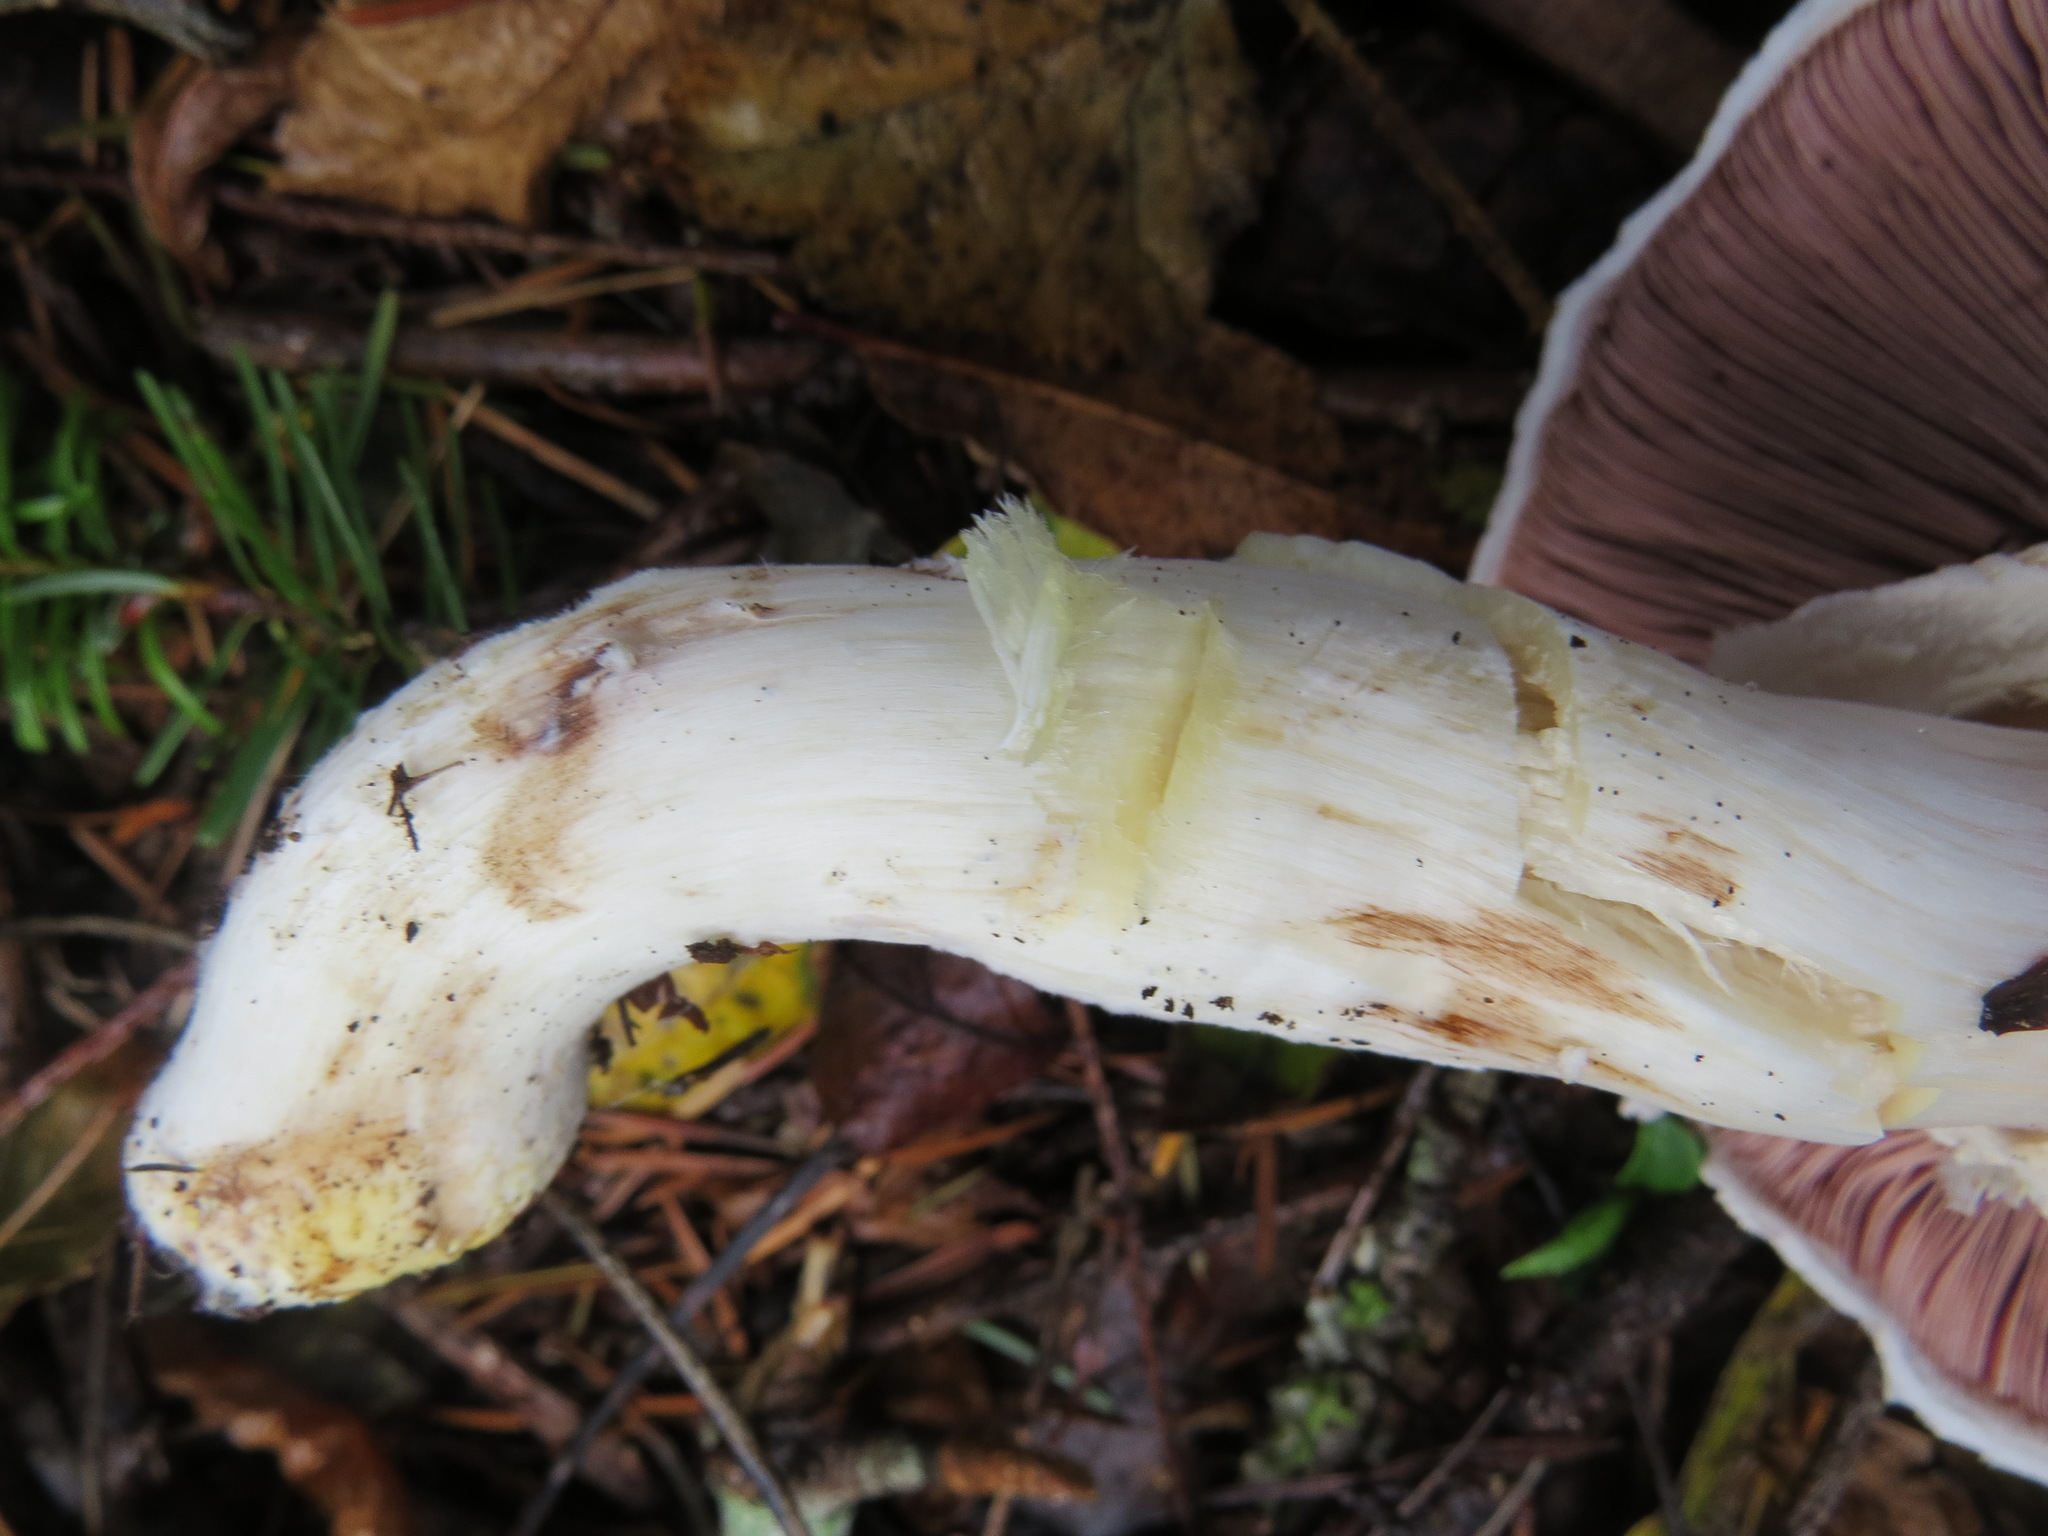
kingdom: Fungi
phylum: Basidiomycota
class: Agaricomycetes
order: Agaricales
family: Agaricaceae
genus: Agaricus
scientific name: Agaricus xanthodermus
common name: Yellow stainer
